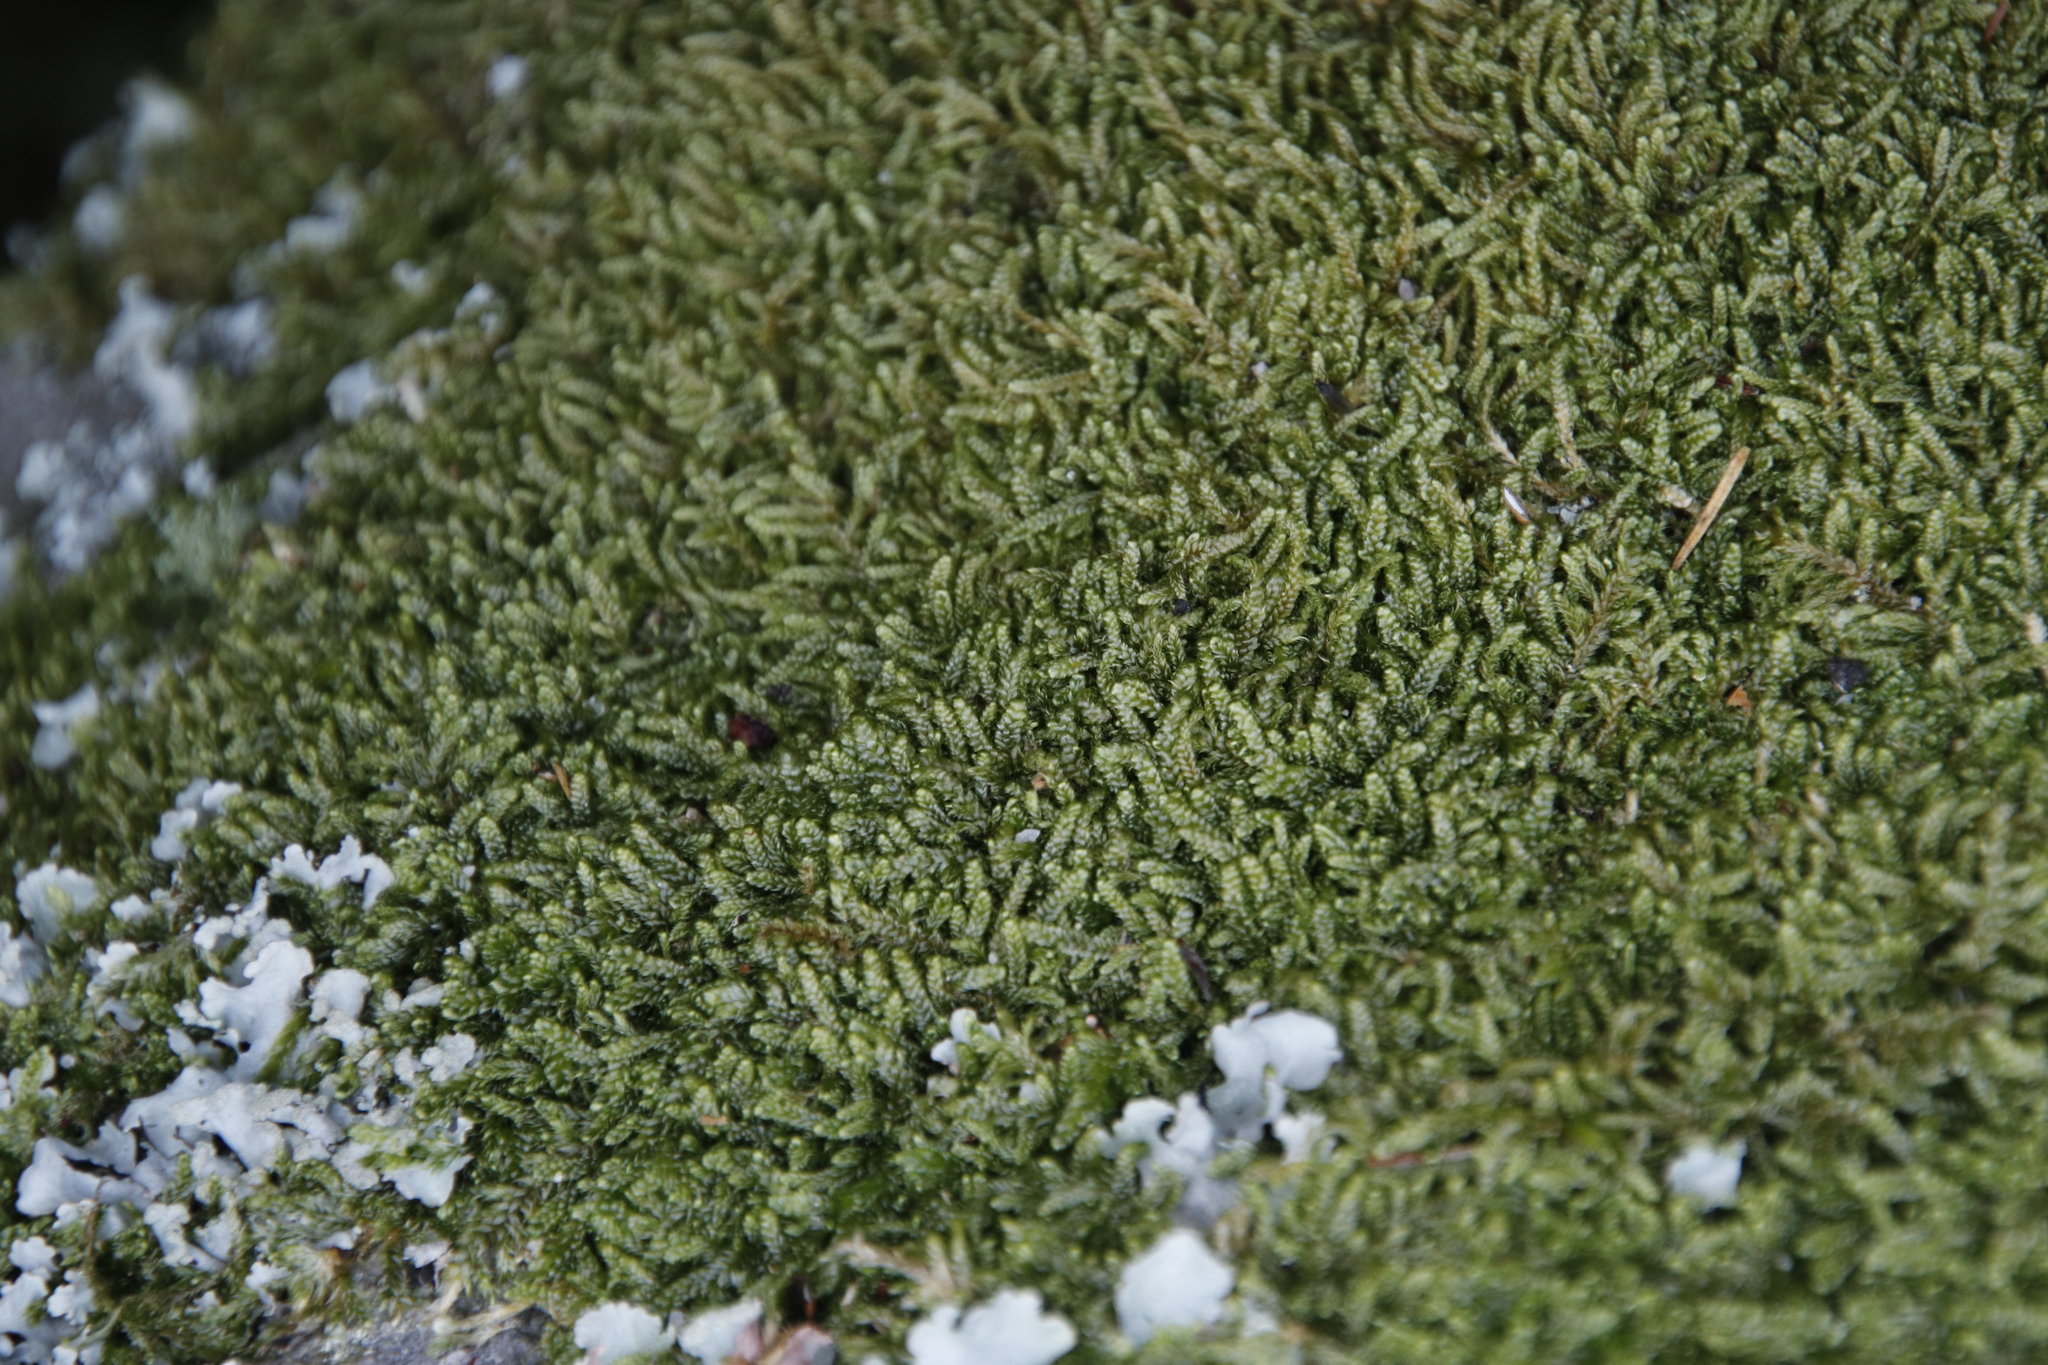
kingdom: Plantae
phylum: Bryophyta
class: Bryopsida
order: Hypnales
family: Hypnaceae
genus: Hypnum
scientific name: Hypnum cupressiforme
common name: Cypress-leaved plait-moss
